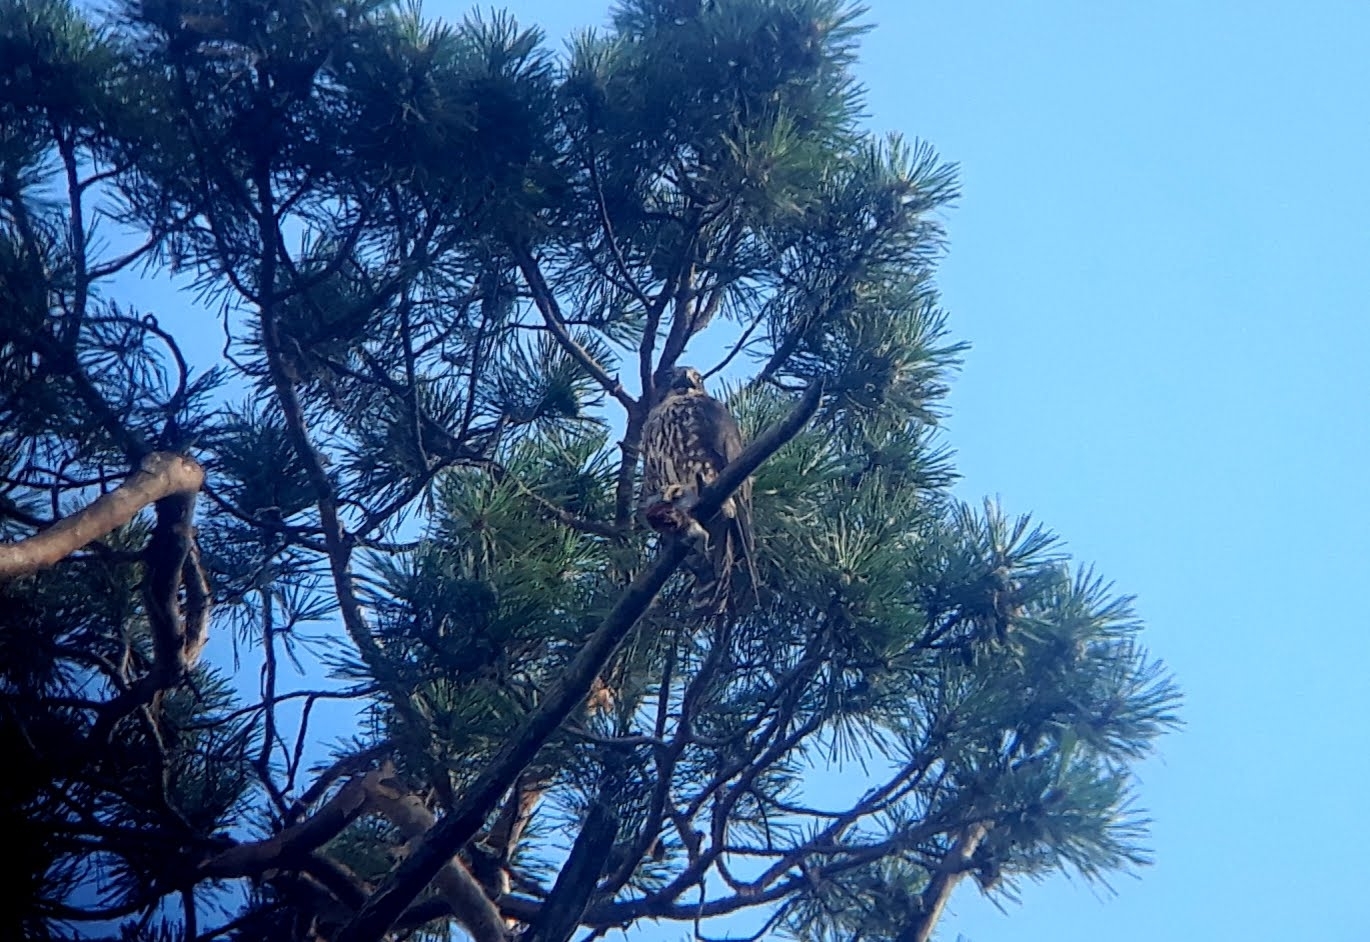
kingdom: Animalia
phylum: Chordata
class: Aves
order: Falconiformes
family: Falconidae
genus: Falco
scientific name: Falco columbarius
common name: Merlin
